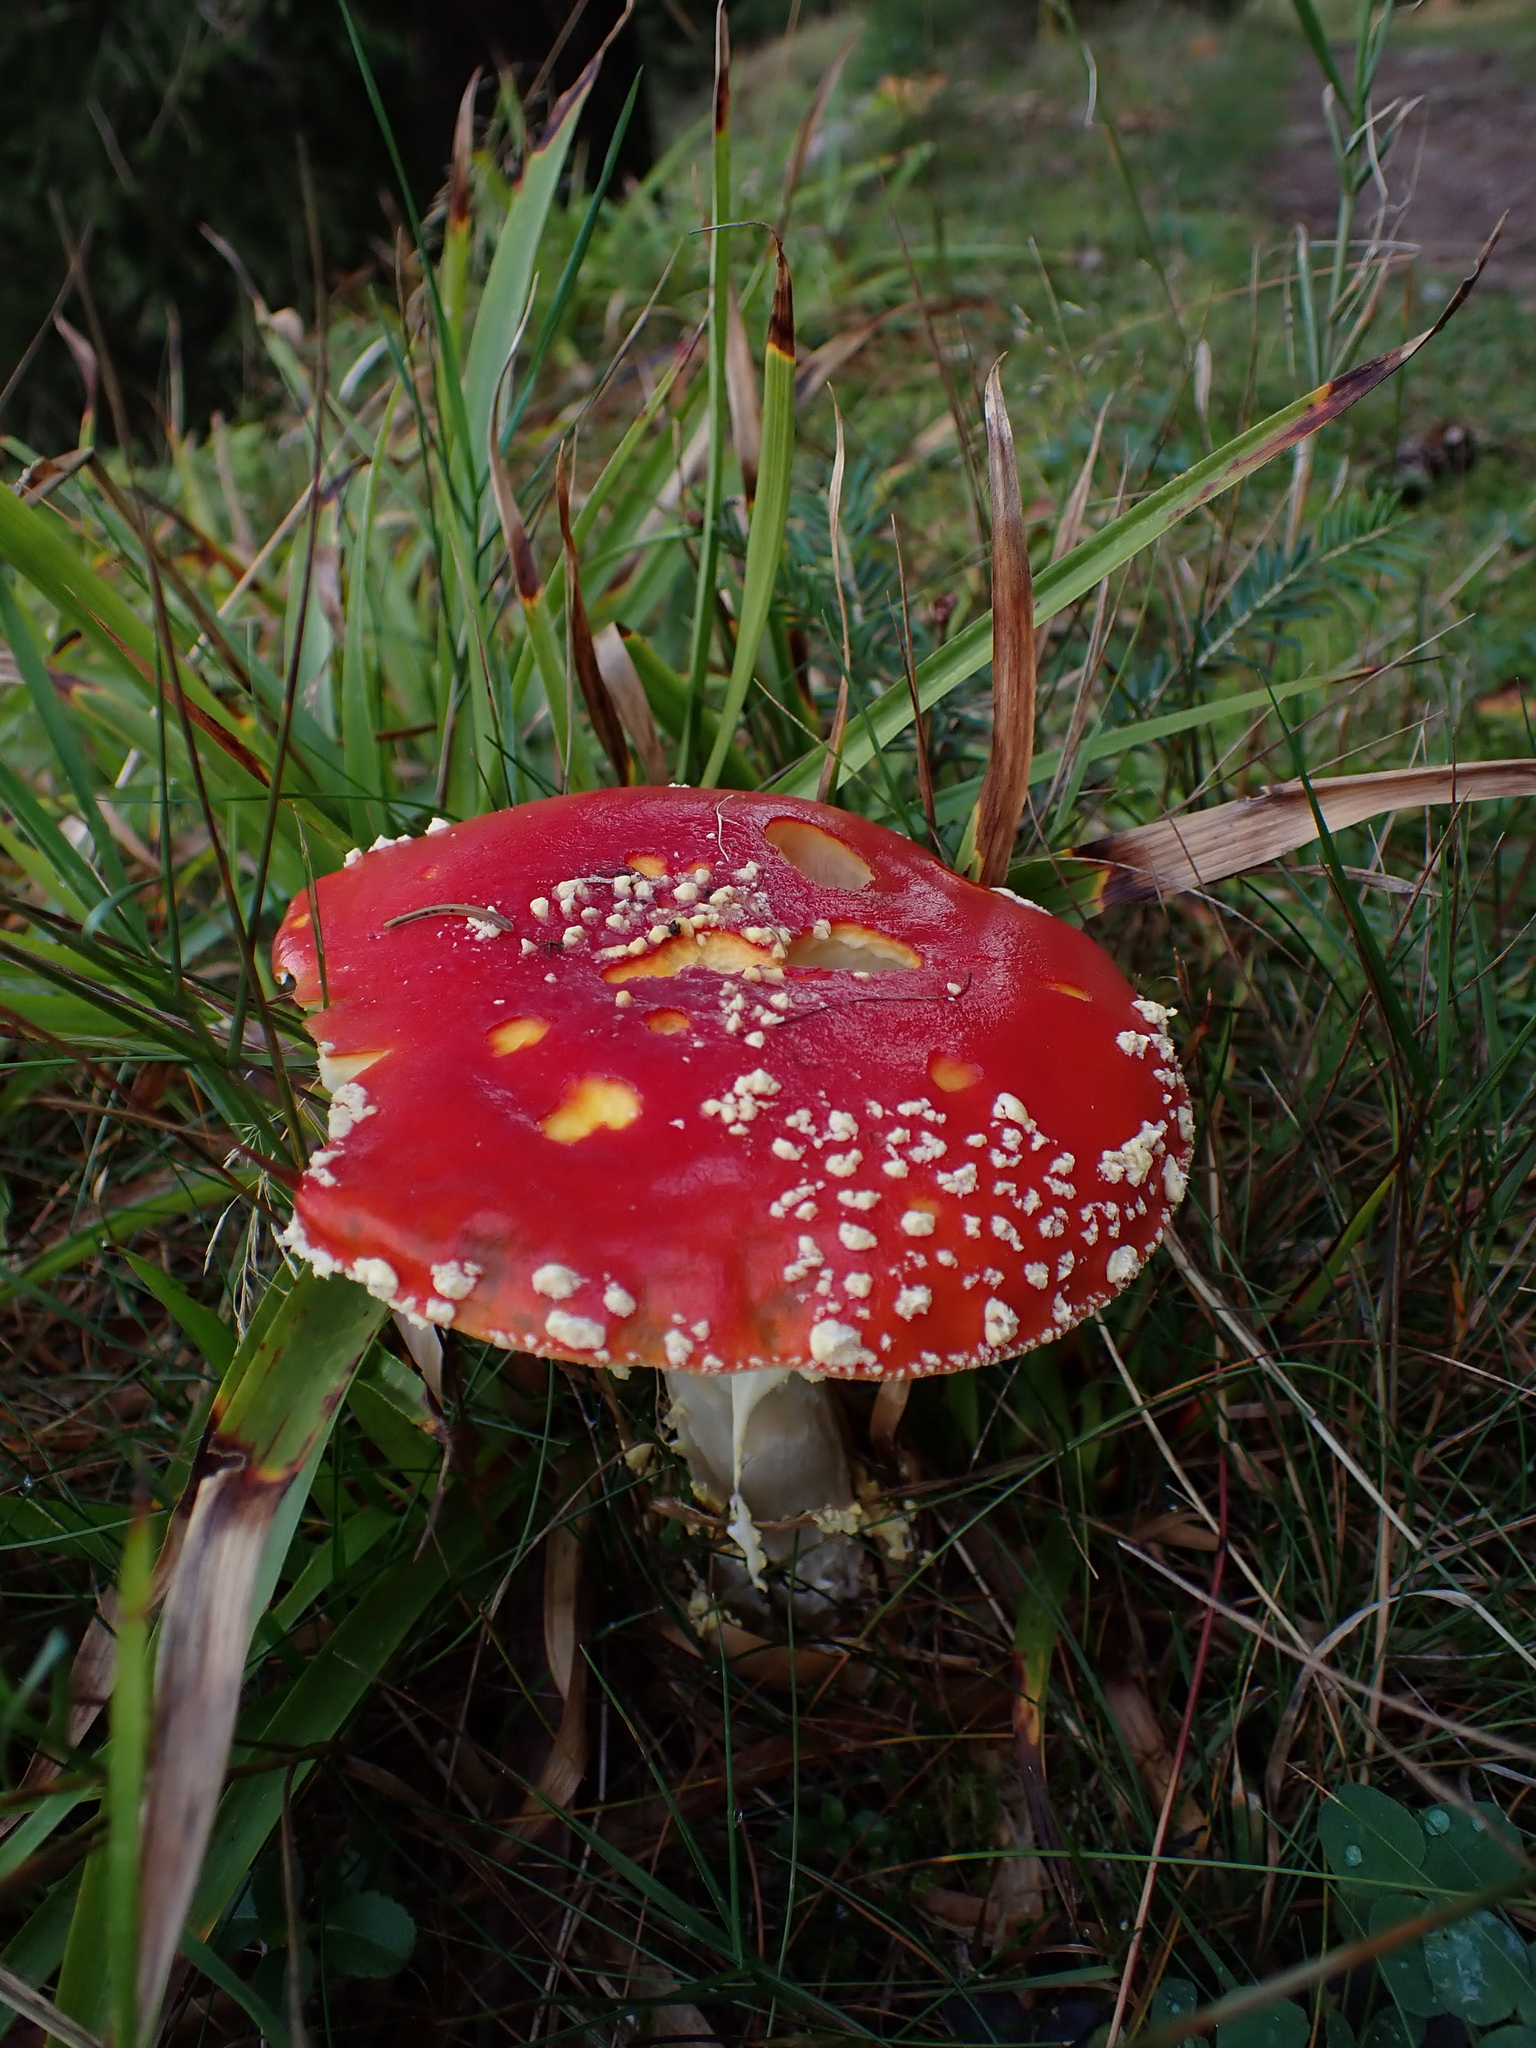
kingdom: Fungi
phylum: Basidiomycota
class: Agaricomycetes
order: Agaricales
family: Amanitaceae
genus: Amanita
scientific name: Amanita muscaria
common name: Fly agaric
